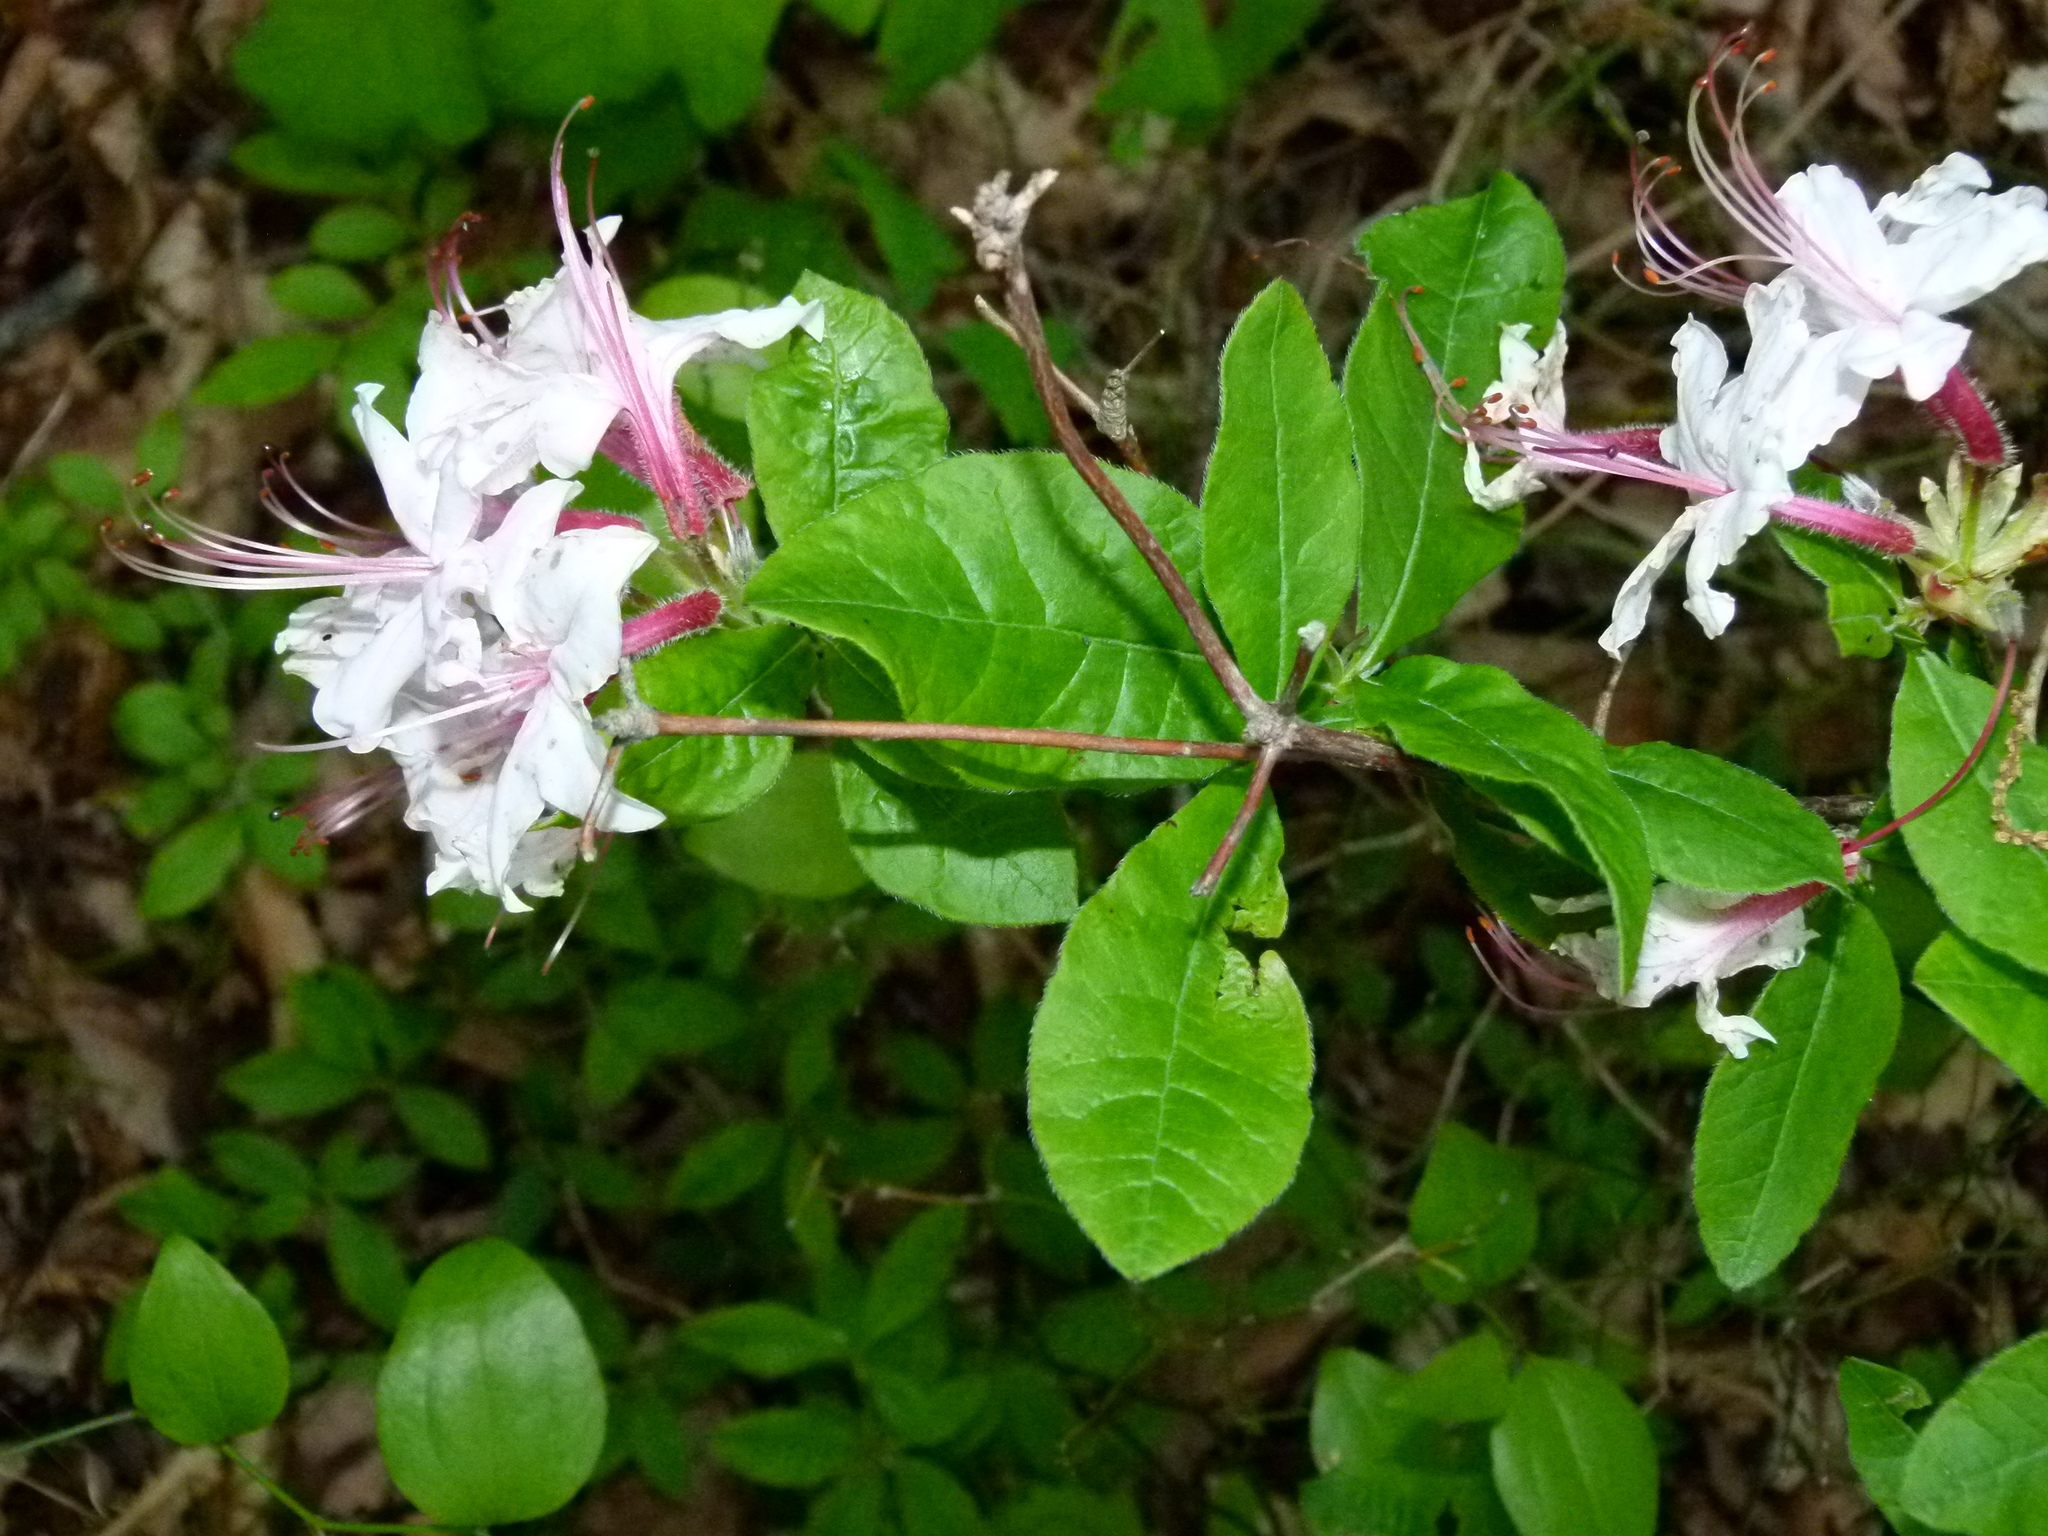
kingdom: Plantae
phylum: Tracheophyta
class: Magnoliopsida
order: Ericales
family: Ericaceae
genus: Rhododendron
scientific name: Rhododendron periclymenoides
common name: Election-pink
